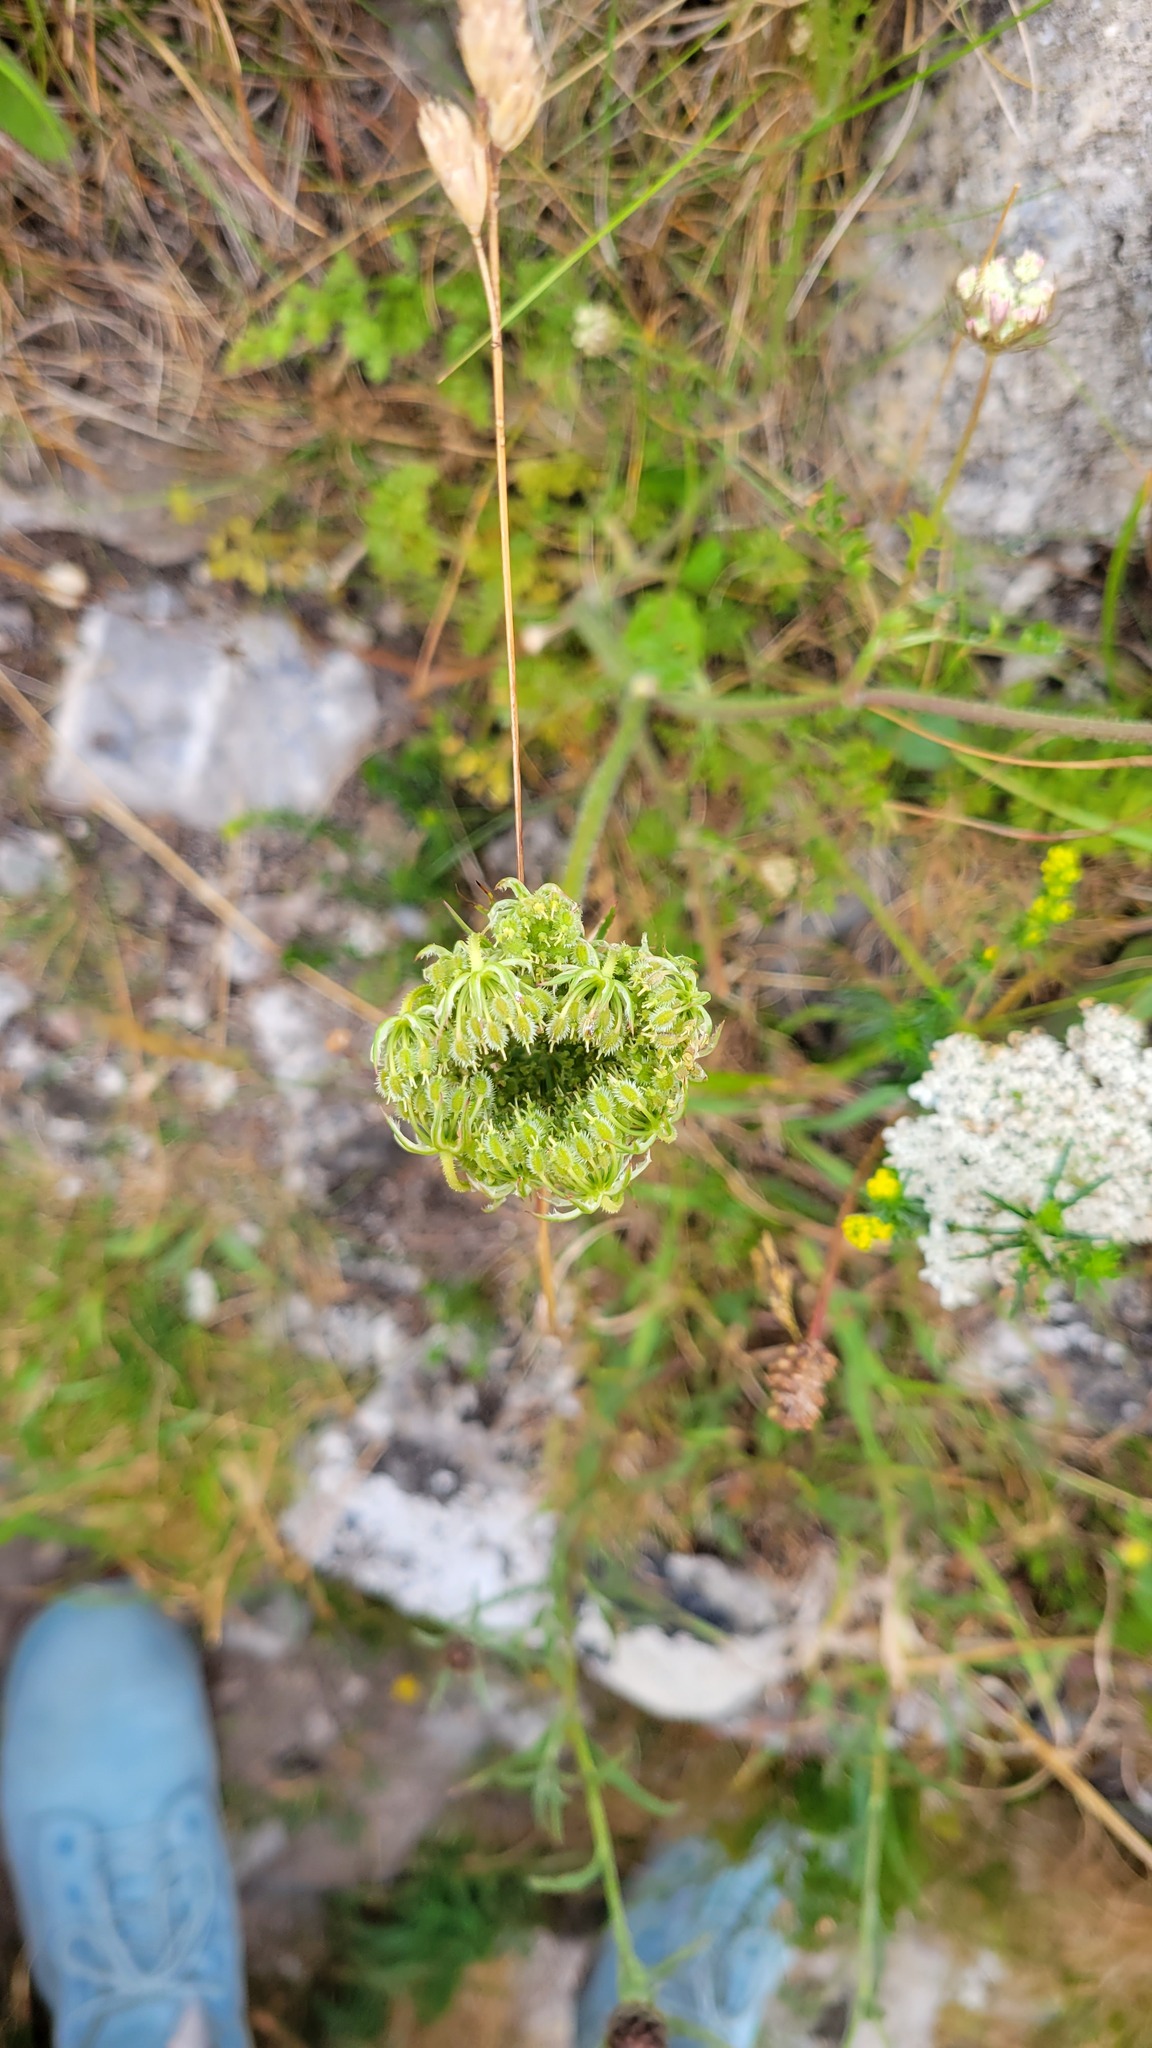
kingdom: Plantae
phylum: Tracheophyta
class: Magnoliopsida
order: Apiales
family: Apiaceae
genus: Daucus
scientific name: Daucus carota
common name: Wild carrot
